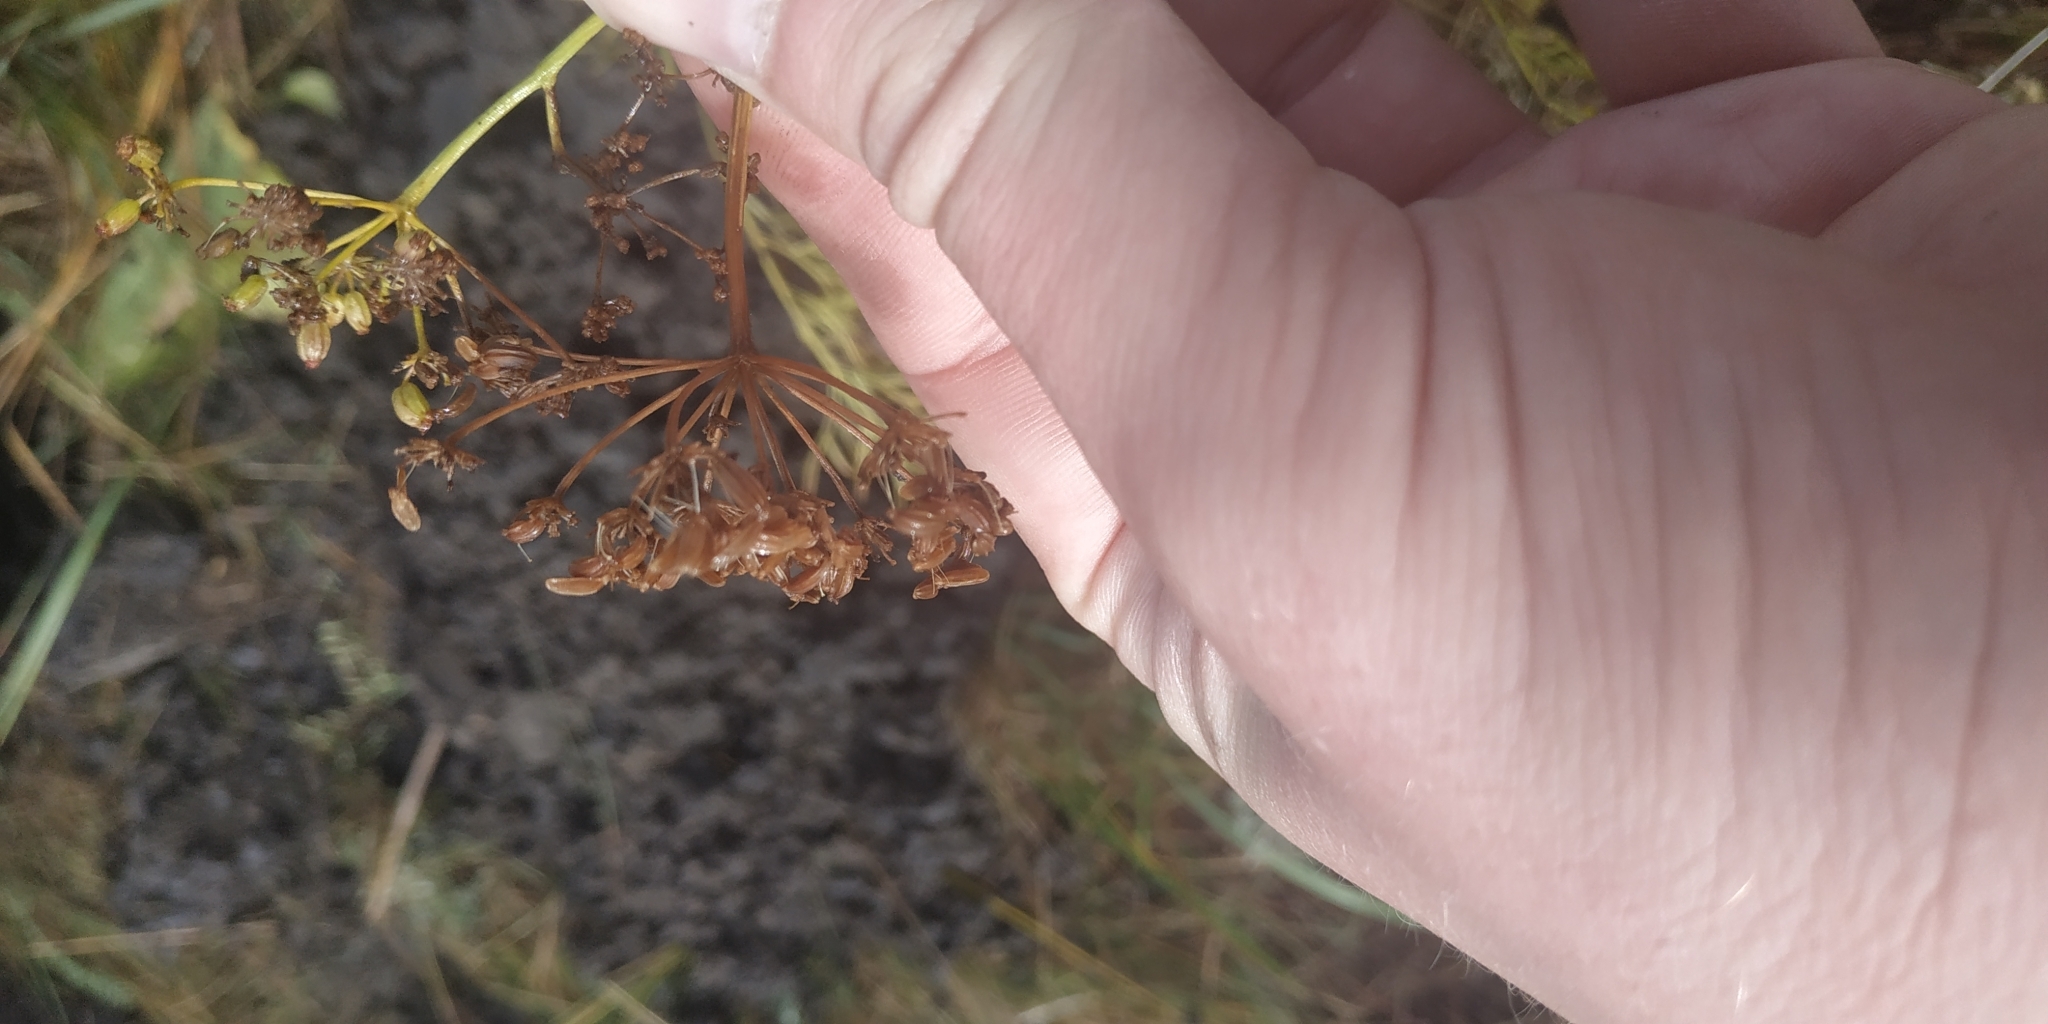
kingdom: Plantae
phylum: Tracheophyta
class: Magnoliopsida
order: Apiales
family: Apiaceae
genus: Silaum
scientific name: Silaum silaus
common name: Pepper-saxifrage
